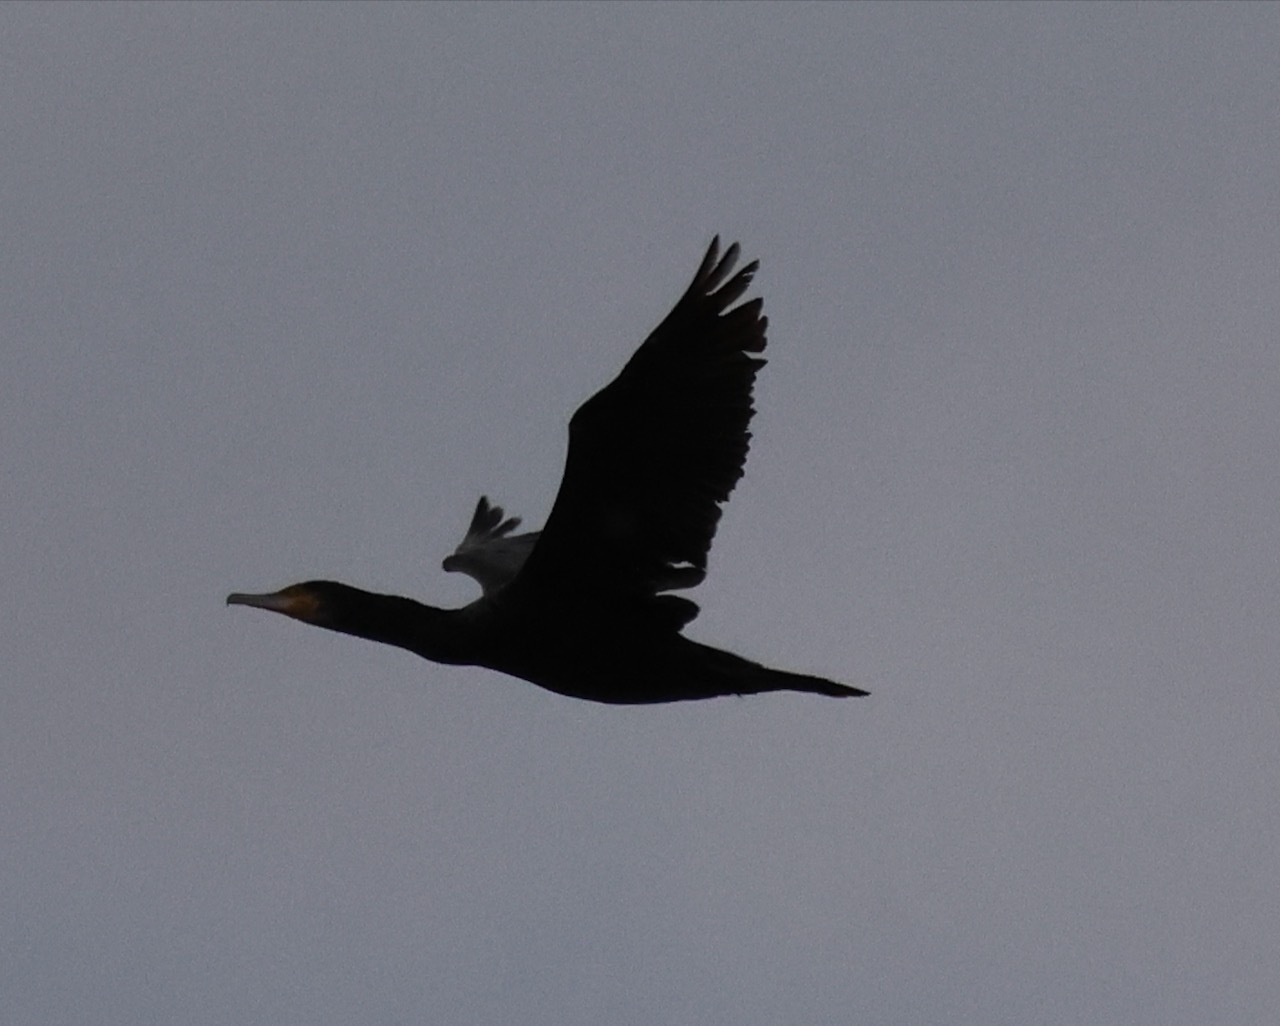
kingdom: Animalia
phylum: Chordata
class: Aves
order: Suliformes
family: Phalacrocoracidae
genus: Phalacrocorax
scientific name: Phalacrocorax carbo
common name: Great cormorant
